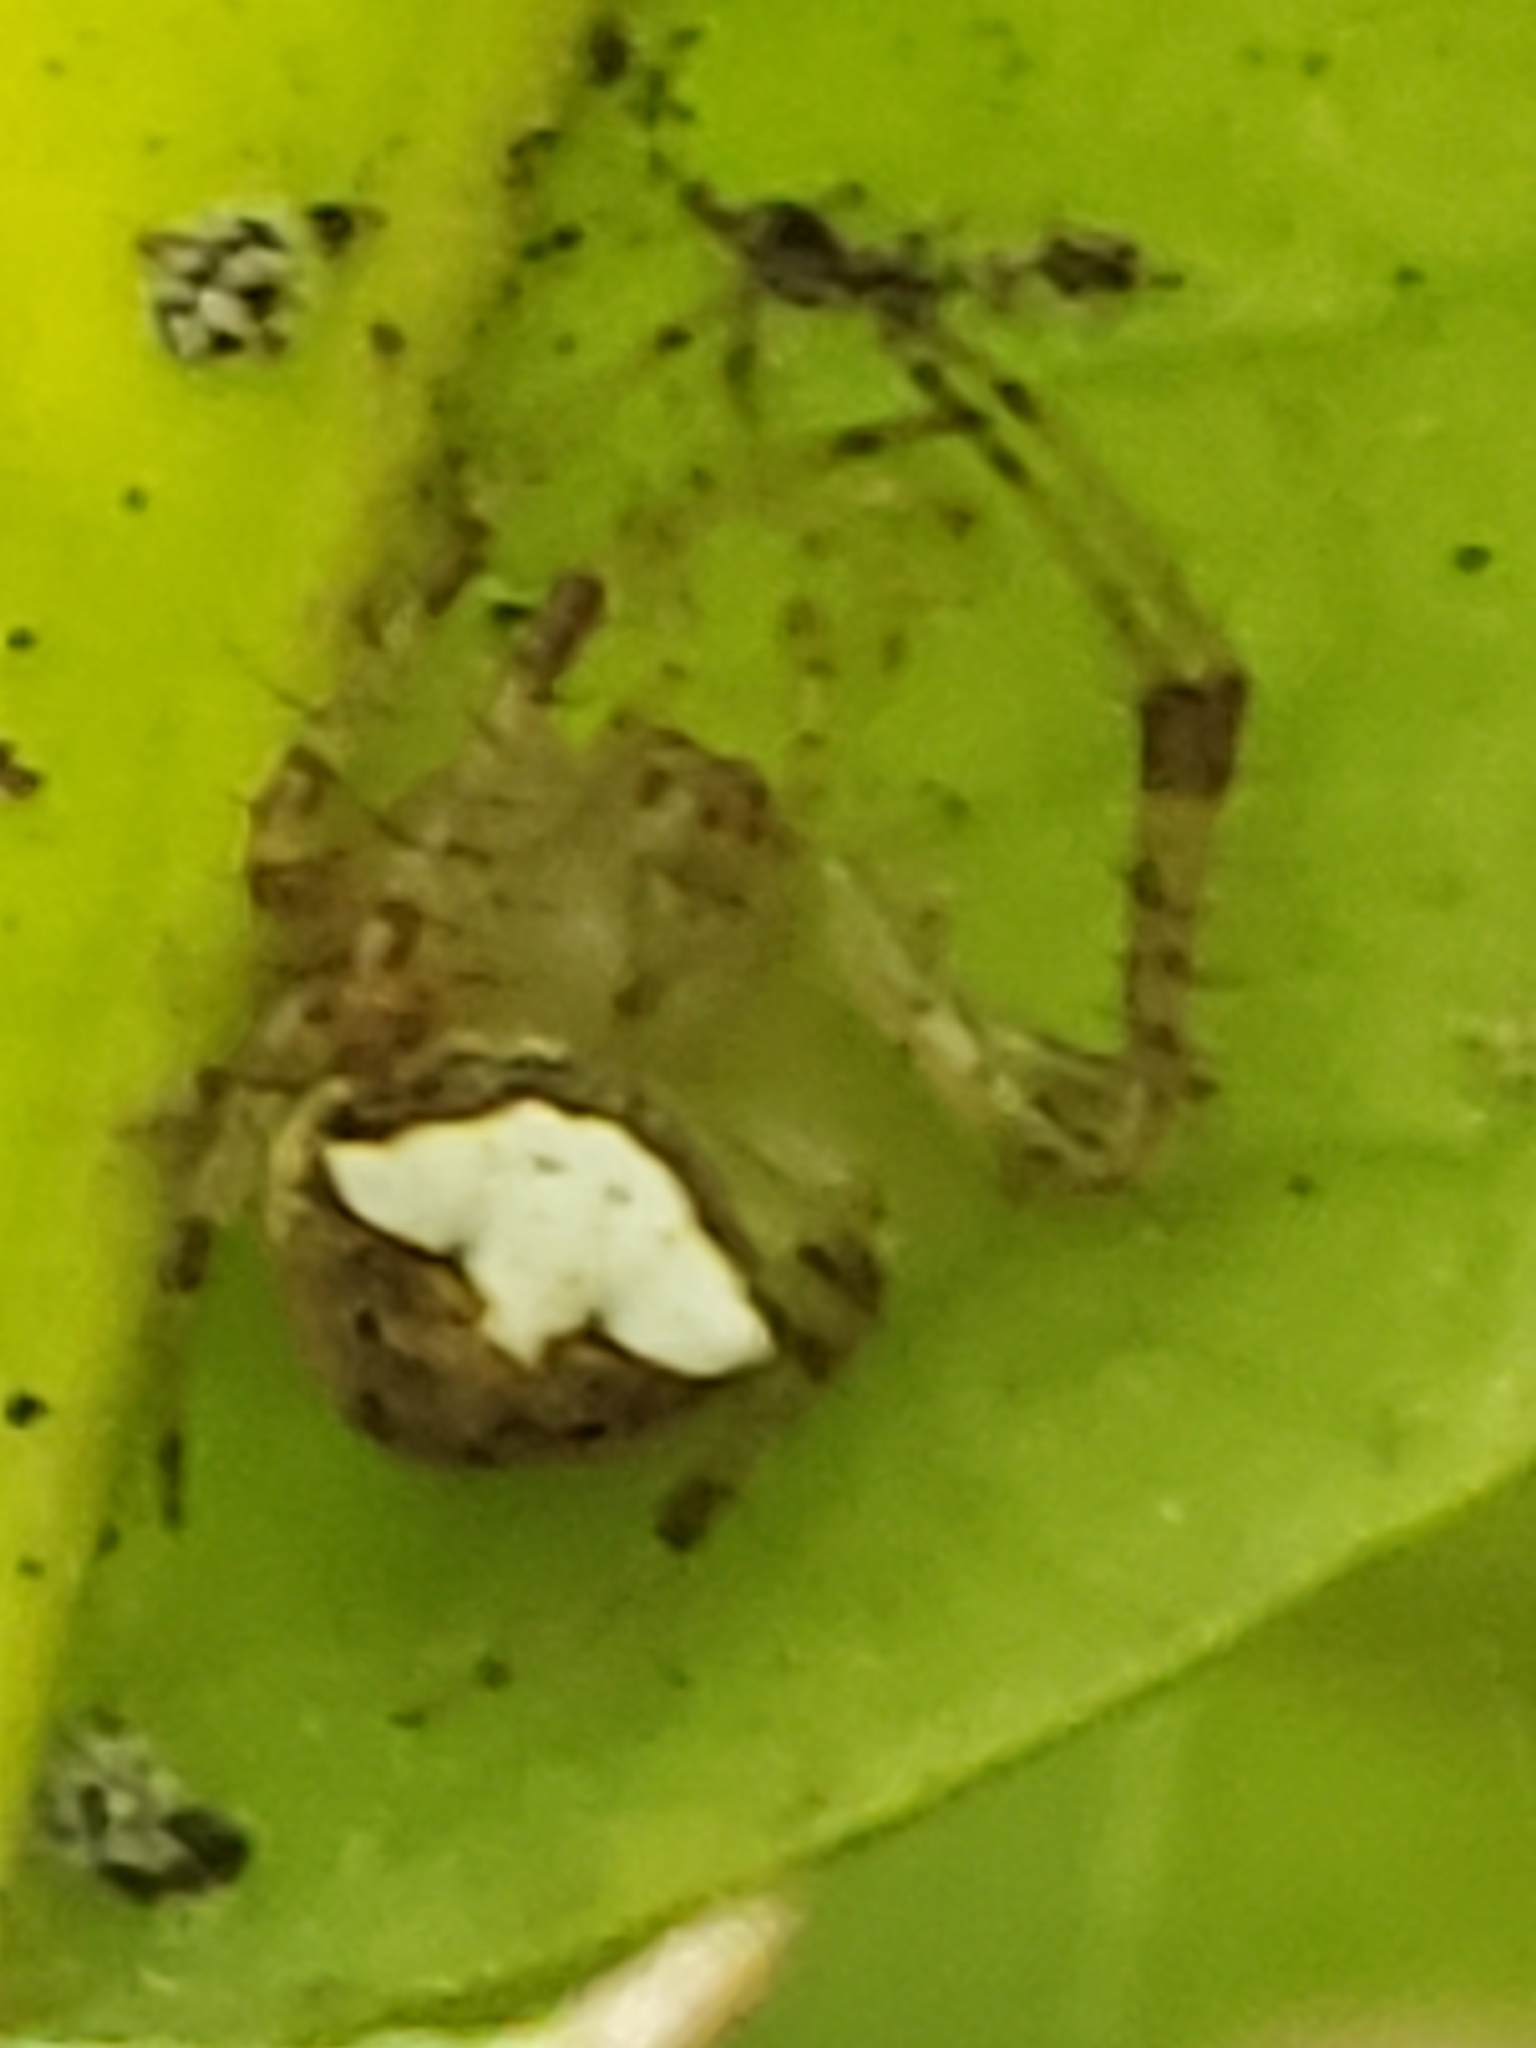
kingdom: Animalia
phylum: Arthropoda
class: Arachnida
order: Araneae
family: Araneidae
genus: Araneus
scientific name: Araneus miniatus
